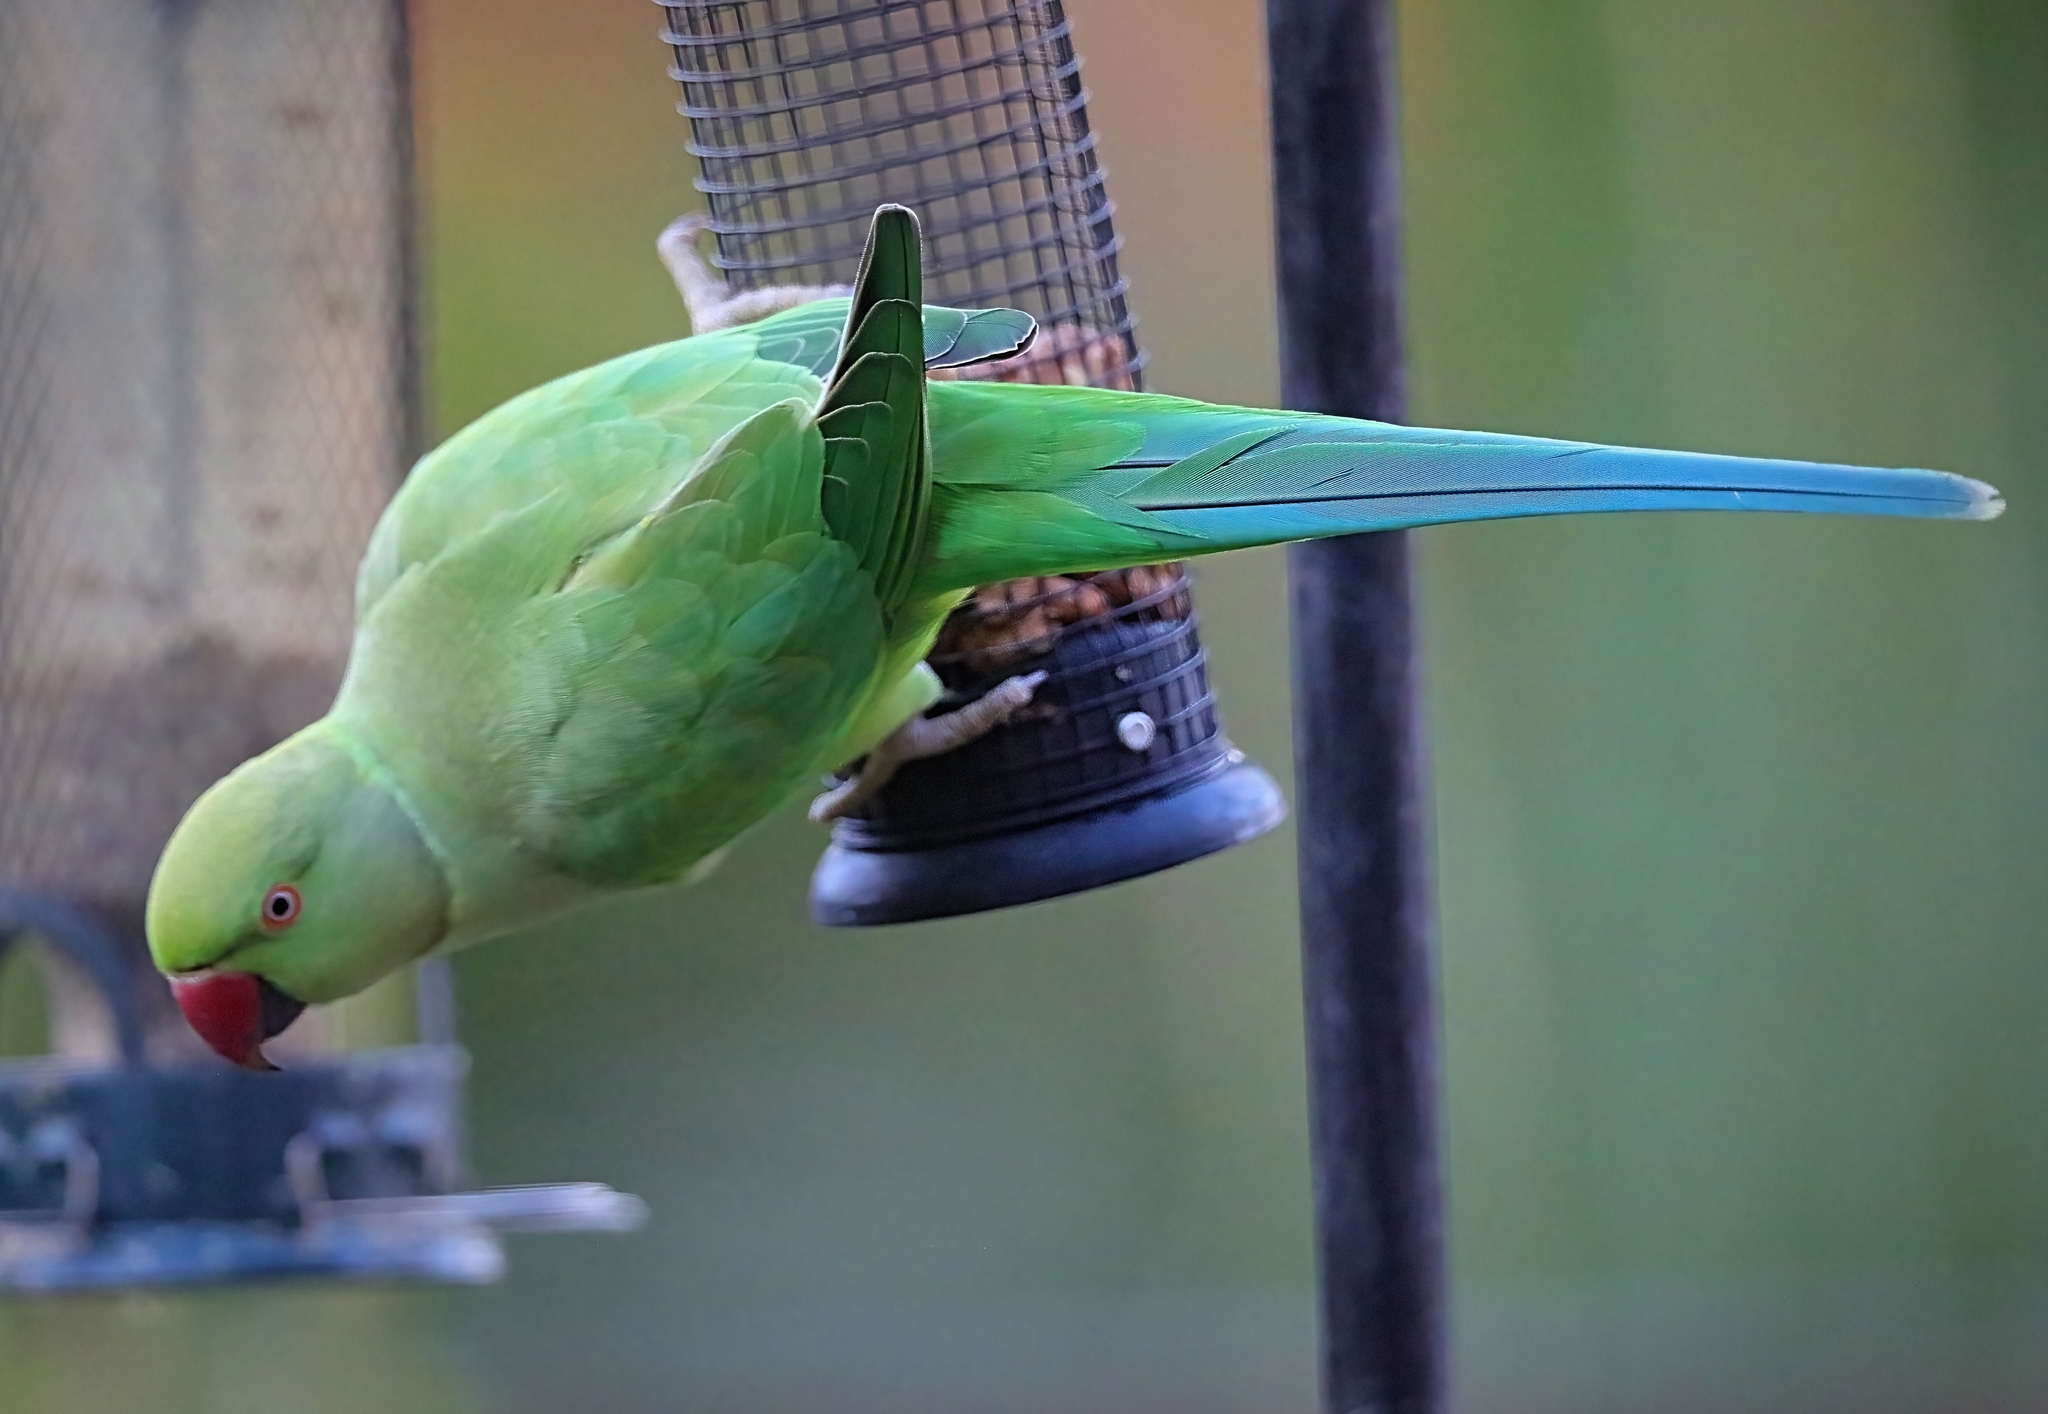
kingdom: Animalia
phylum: Chordata
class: Aves
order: Psittaciformes
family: Psittacidae
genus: Psittacula
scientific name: Psittacula krameri
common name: Rose-ringed parakeet
